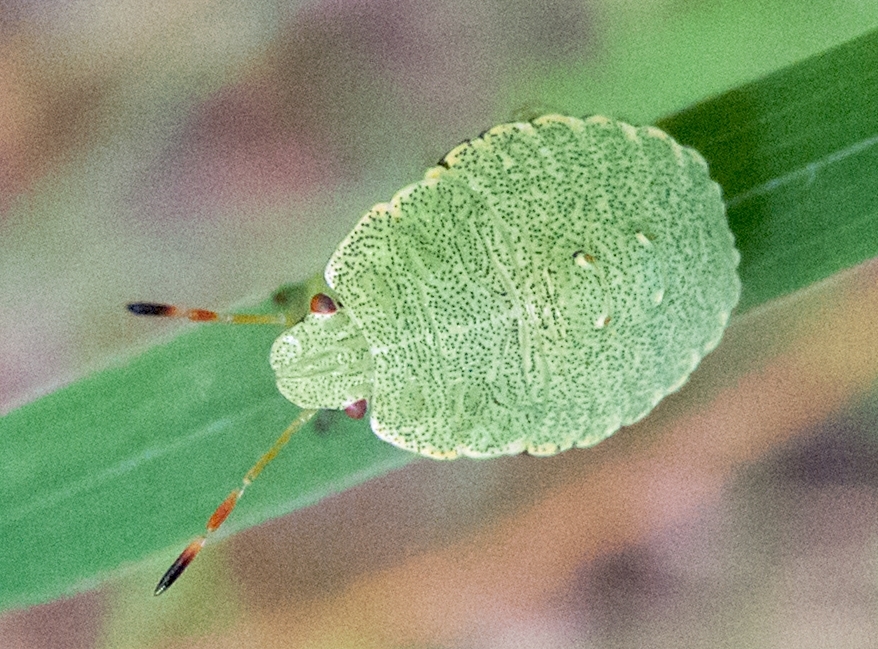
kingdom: Animalia
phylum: Arthropoda
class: Insecta
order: Hemiptera
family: Pentatomidae
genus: Palomena
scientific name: Palomena prasina
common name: Green shieldbug
